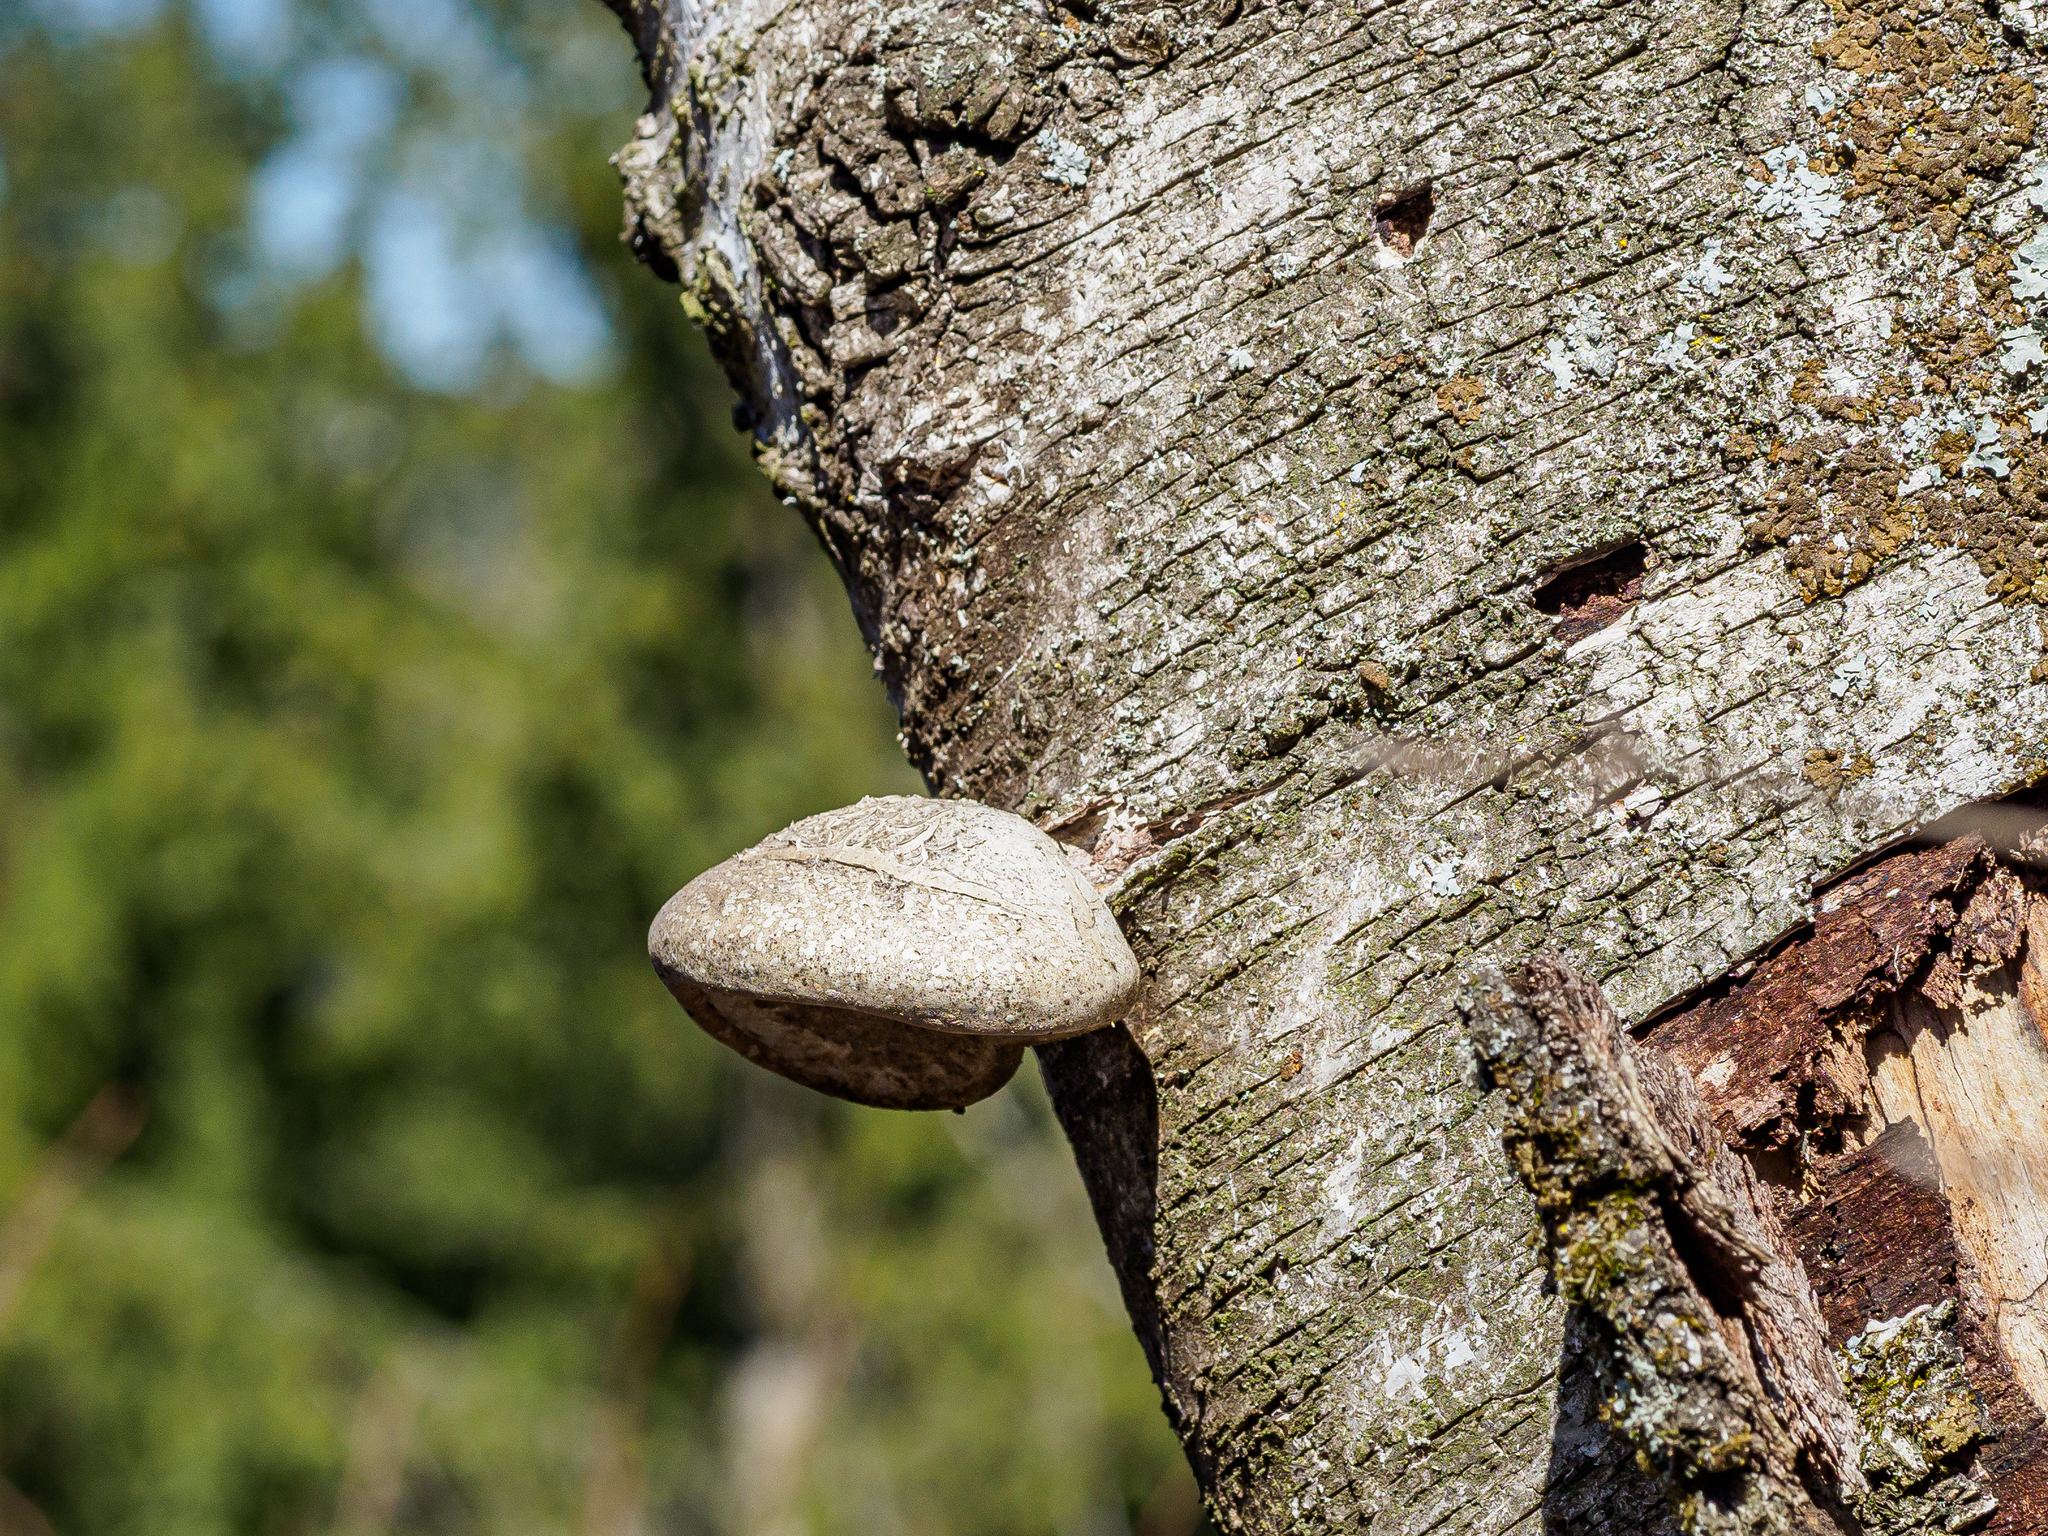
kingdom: Fungi
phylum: Basidiomycota
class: Agaricomycetes
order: Polyporales
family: Fomitopsidaceae
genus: Fomitopsis
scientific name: Fomitopsis betulina
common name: Birch polypore
